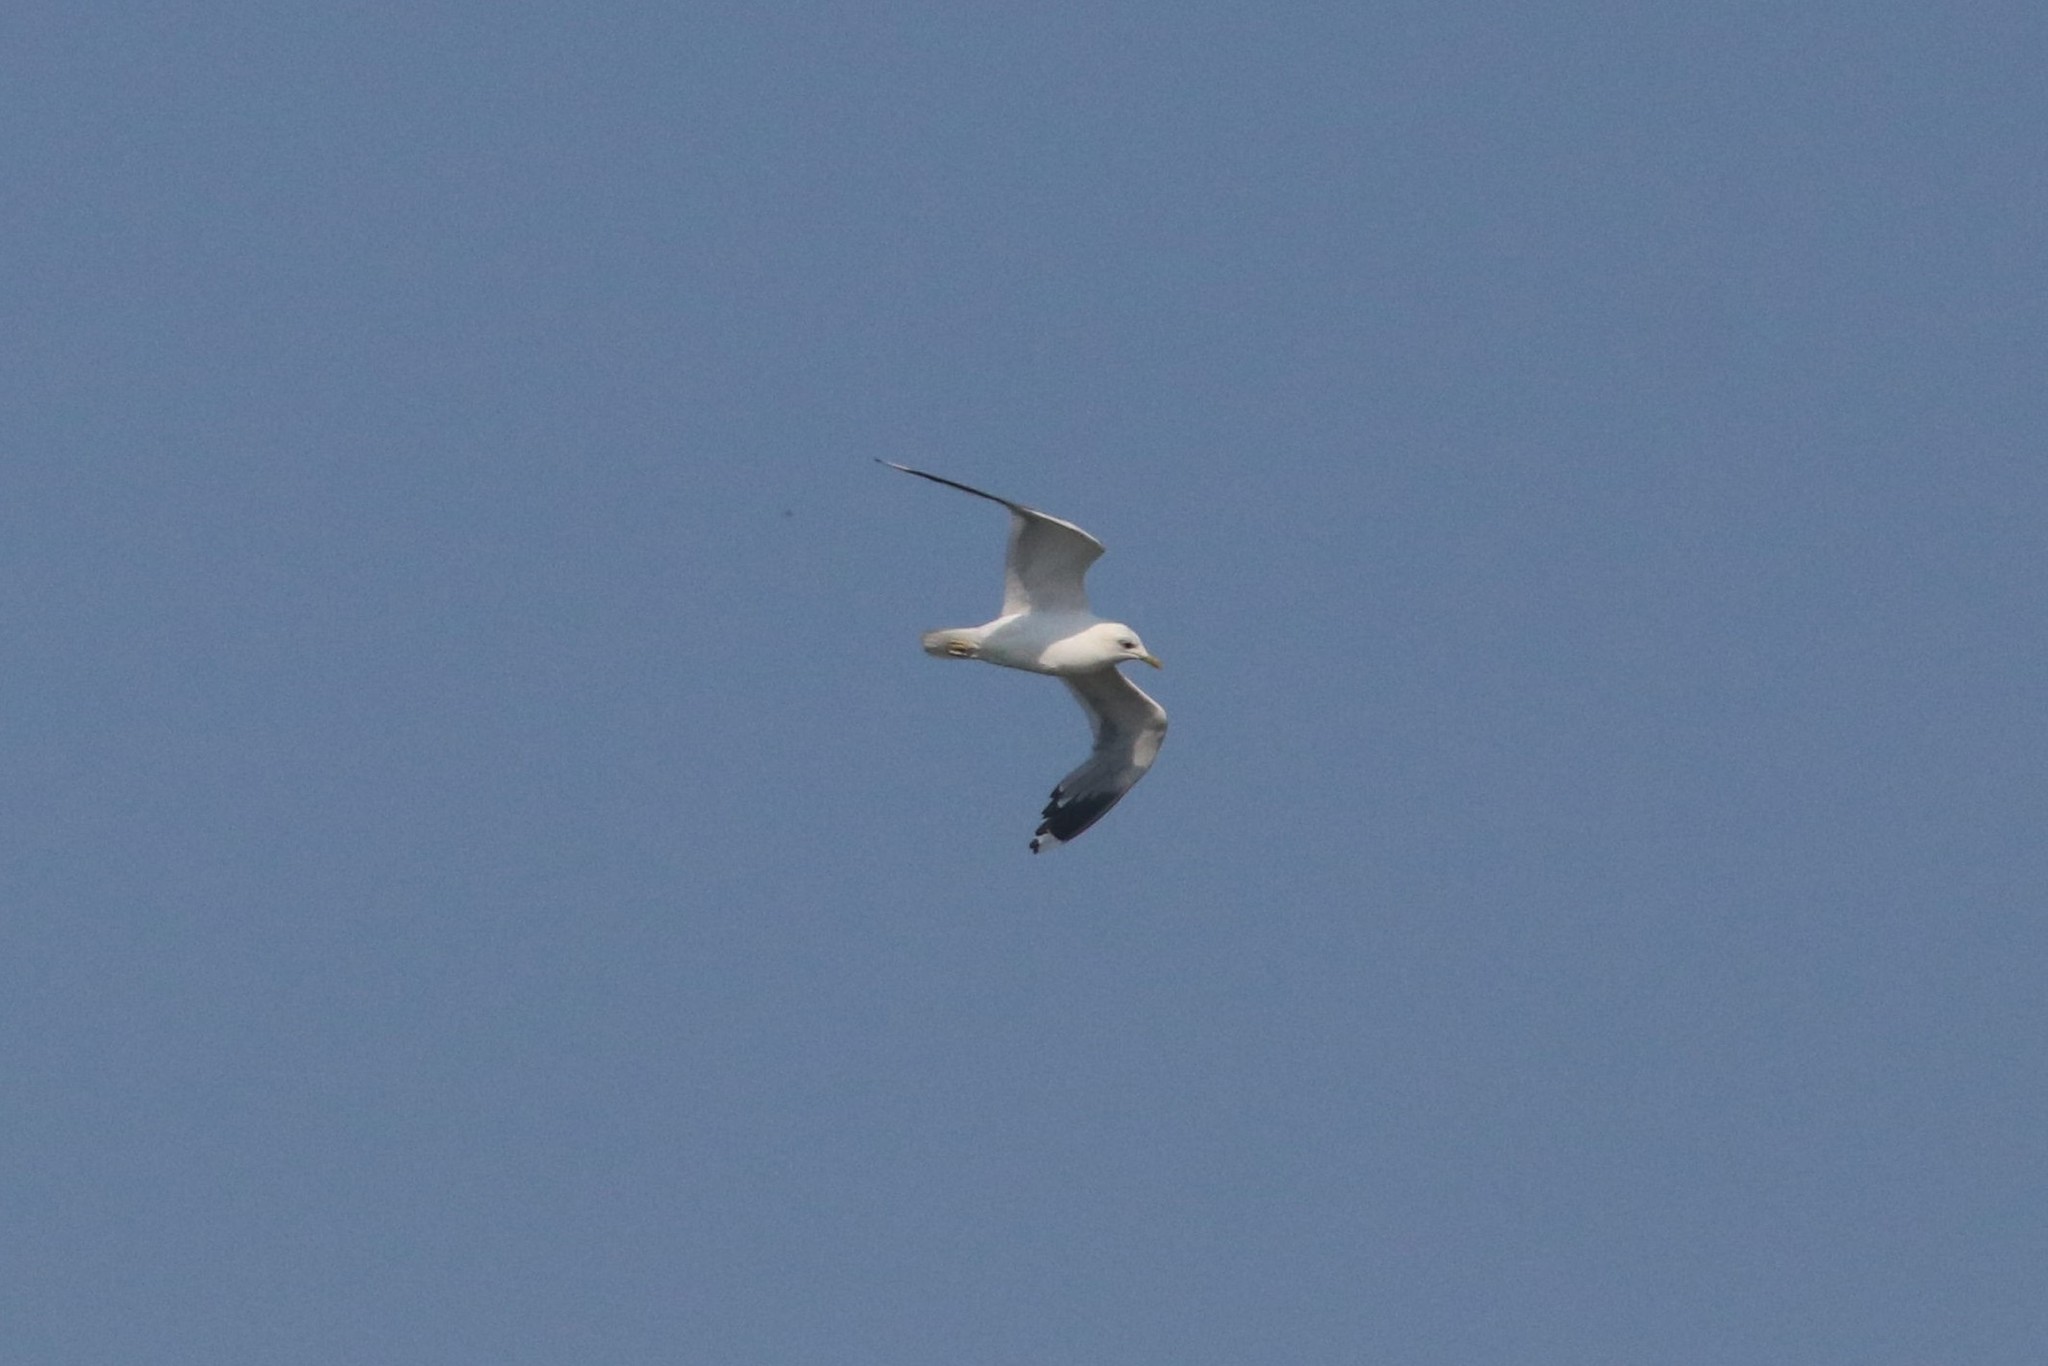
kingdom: Animalia
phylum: Chordata
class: Aves
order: Charadriiformes
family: Laridae
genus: Larus
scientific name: Larus canus
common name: Mew gull
